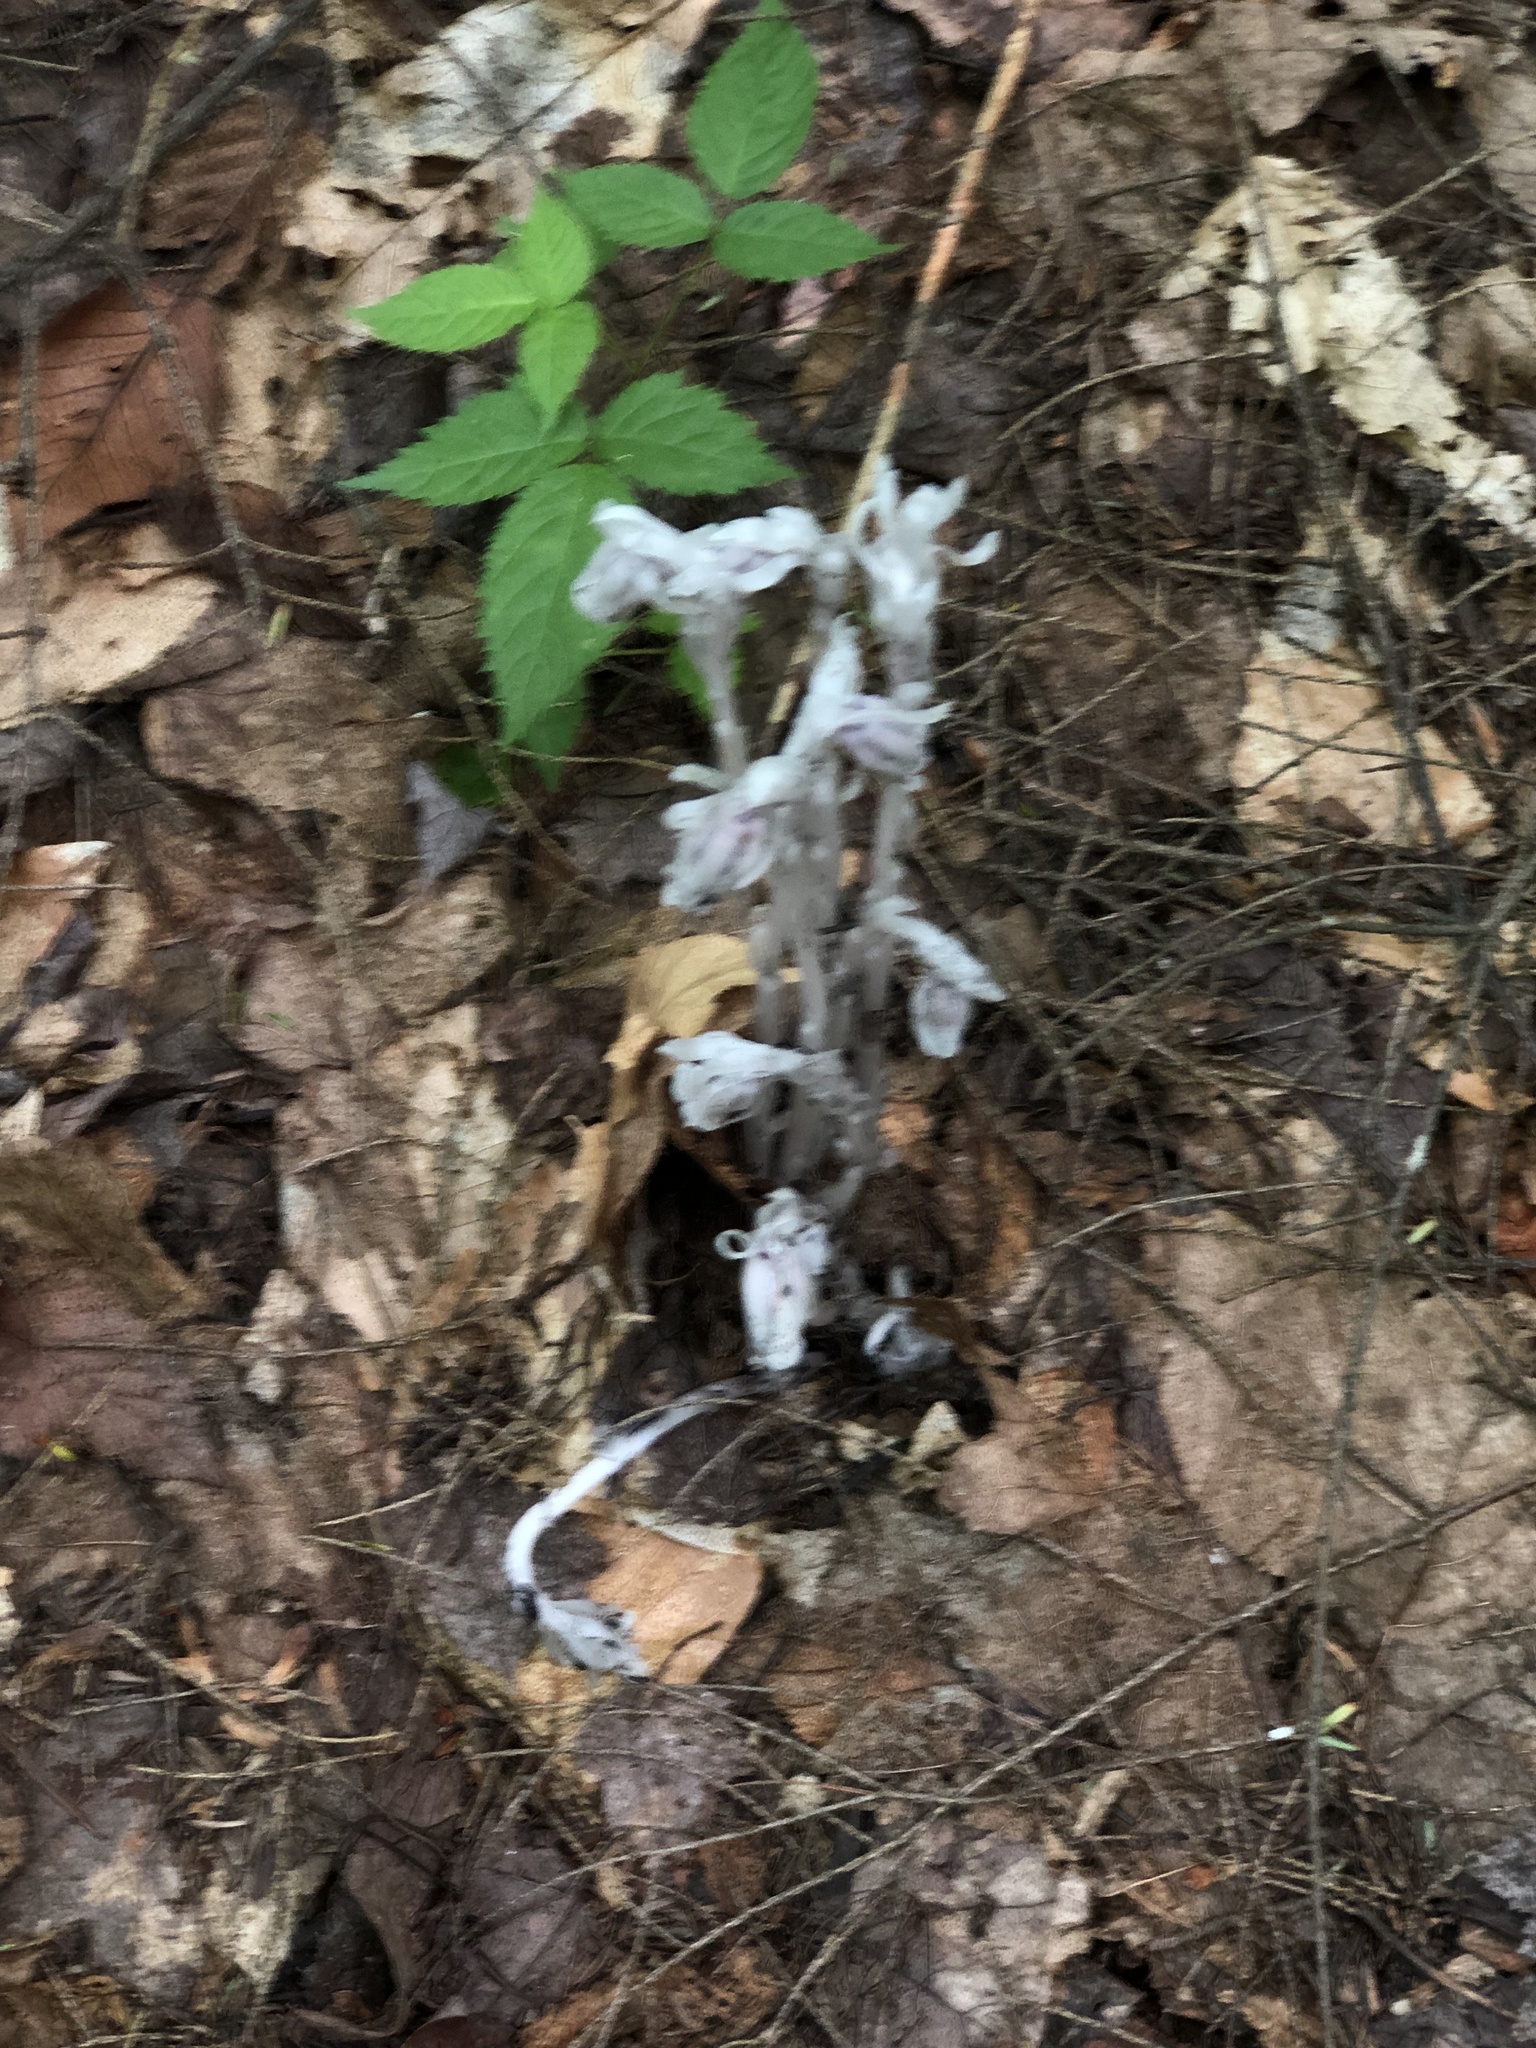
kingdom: Plantae
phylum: Tracheophyta
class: Magnoliopsida
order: Ericales
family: Ericaceae
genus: Monotropa
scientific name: Monotropa uniflora
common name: Convulsion root
